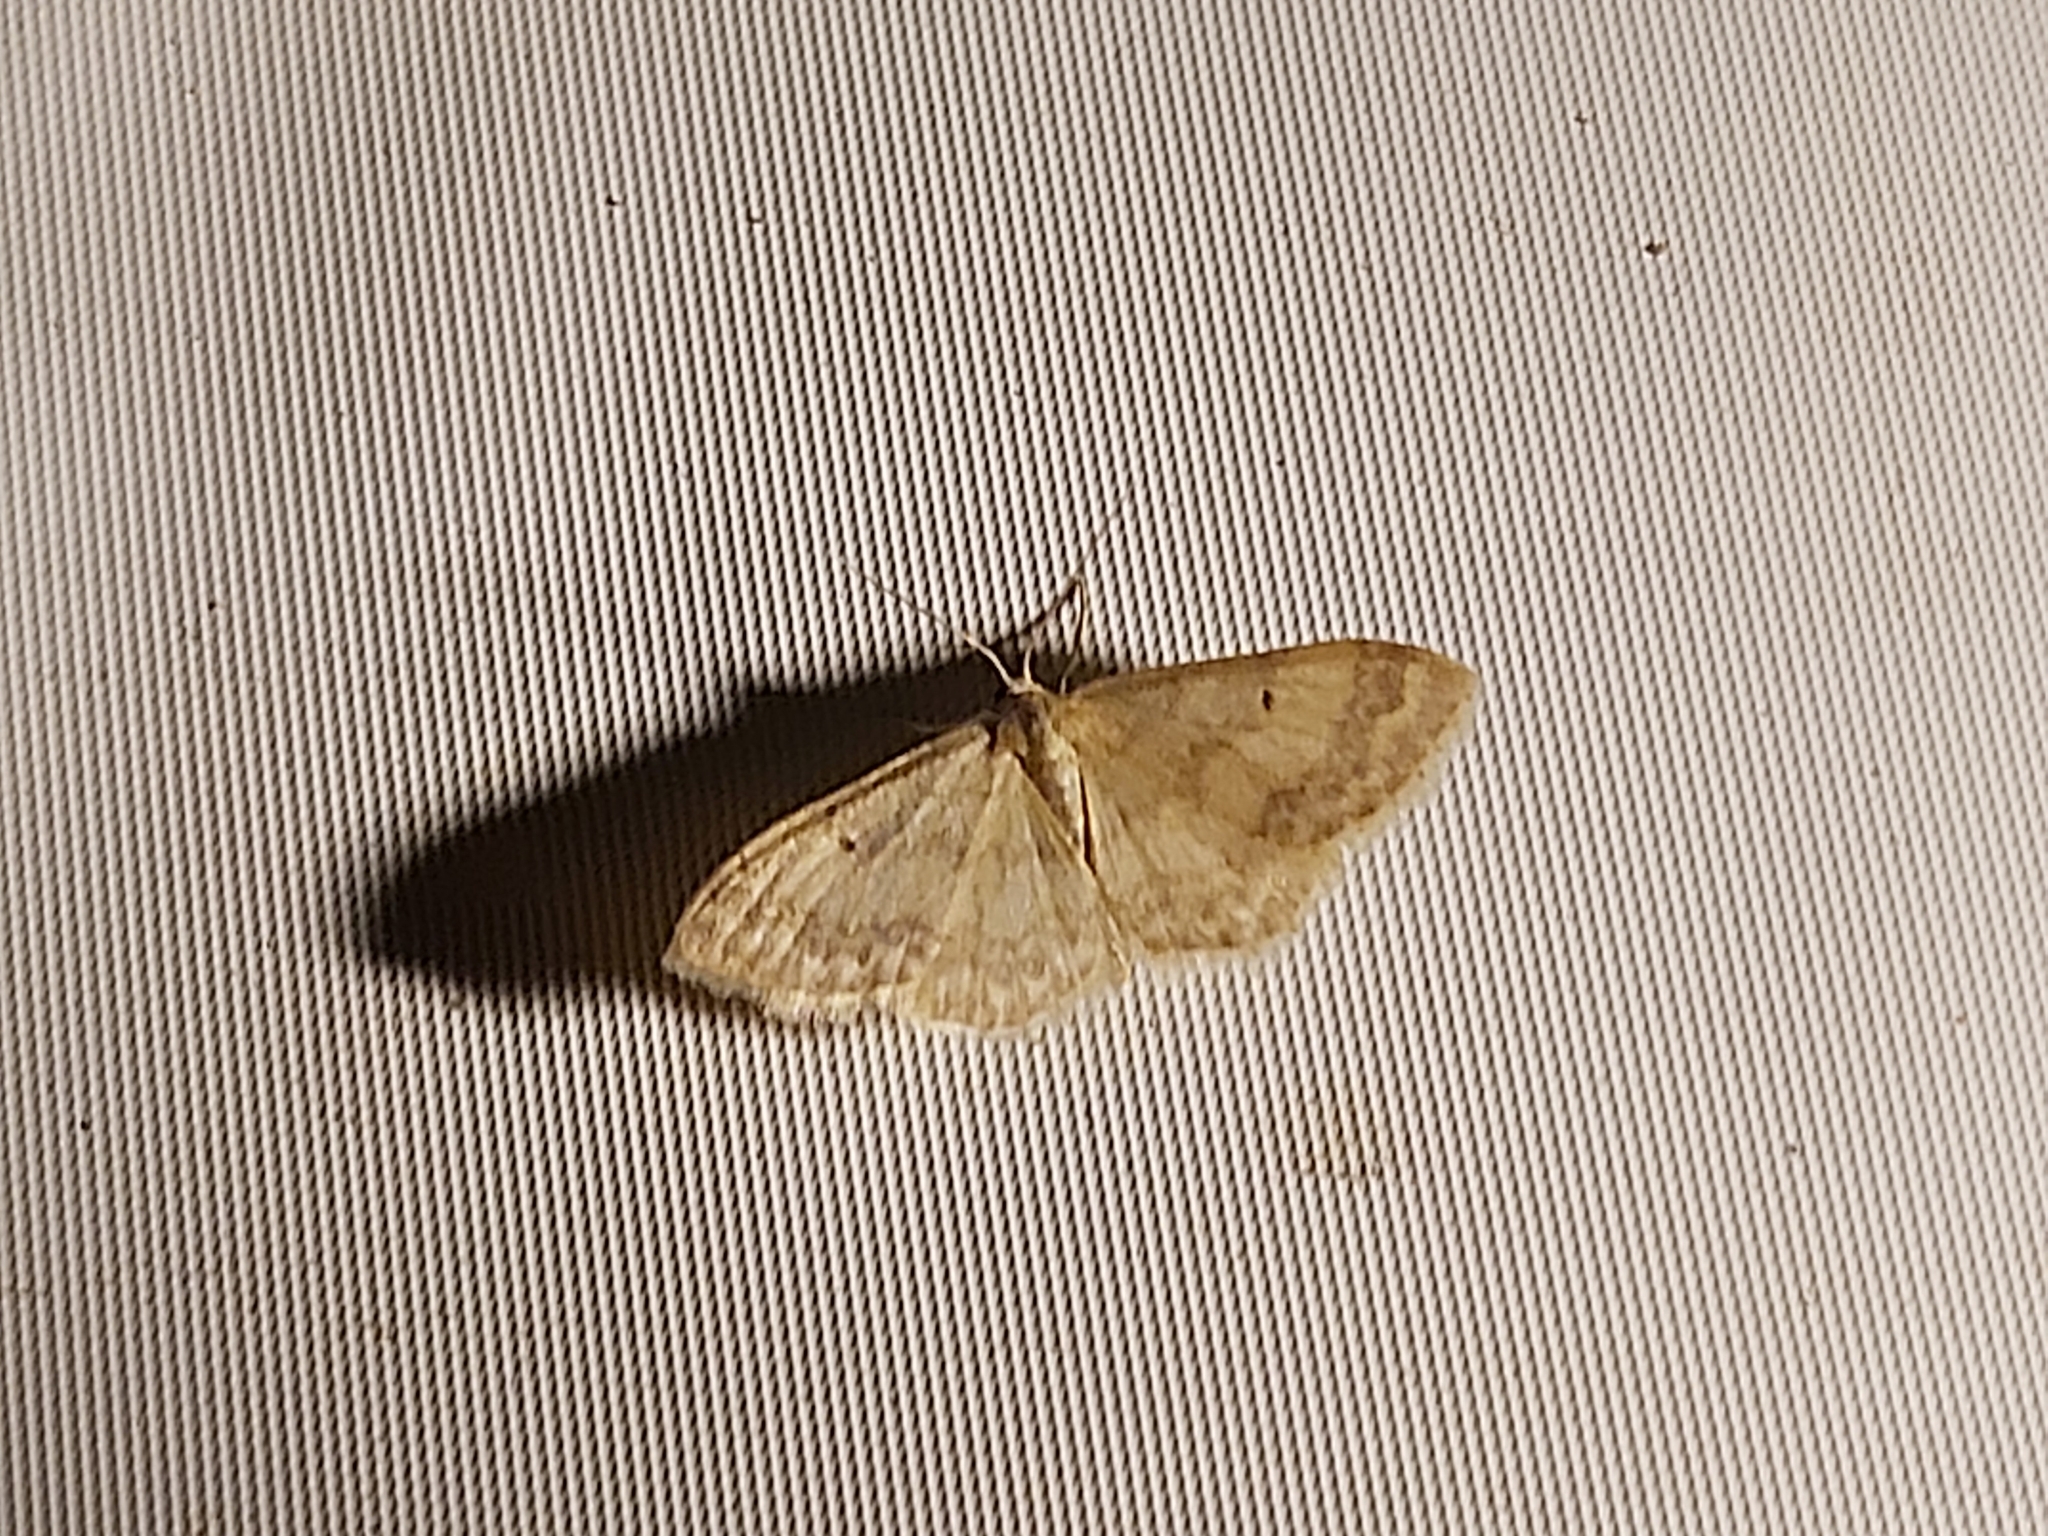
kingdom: Animalia
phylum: Arthropoda
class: Insecta
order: Lepidoptera
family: Geometridae
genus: Idaea
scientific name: Idaea biselata
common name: Small fan-footed wave
